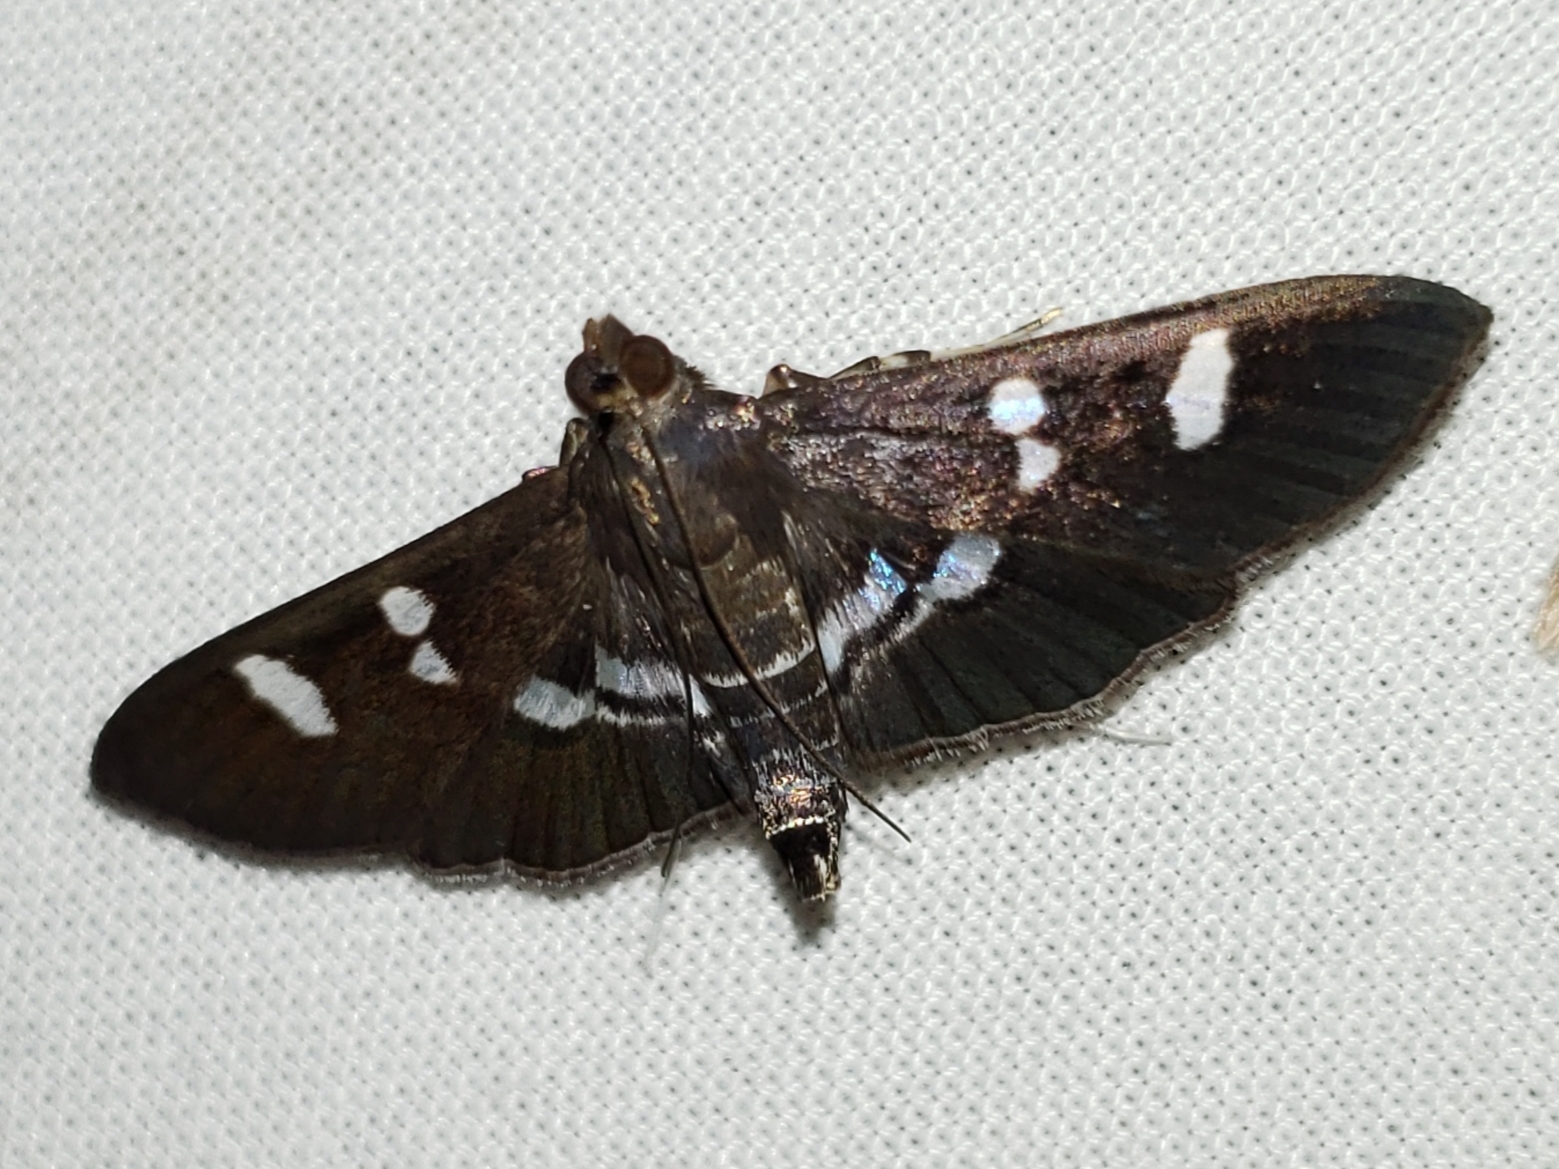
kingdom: Animalia
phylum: Arthropoda
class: Insecta
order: Lepidoptera
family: Crambidae
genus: Desmia
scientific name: Desmia deploralis
